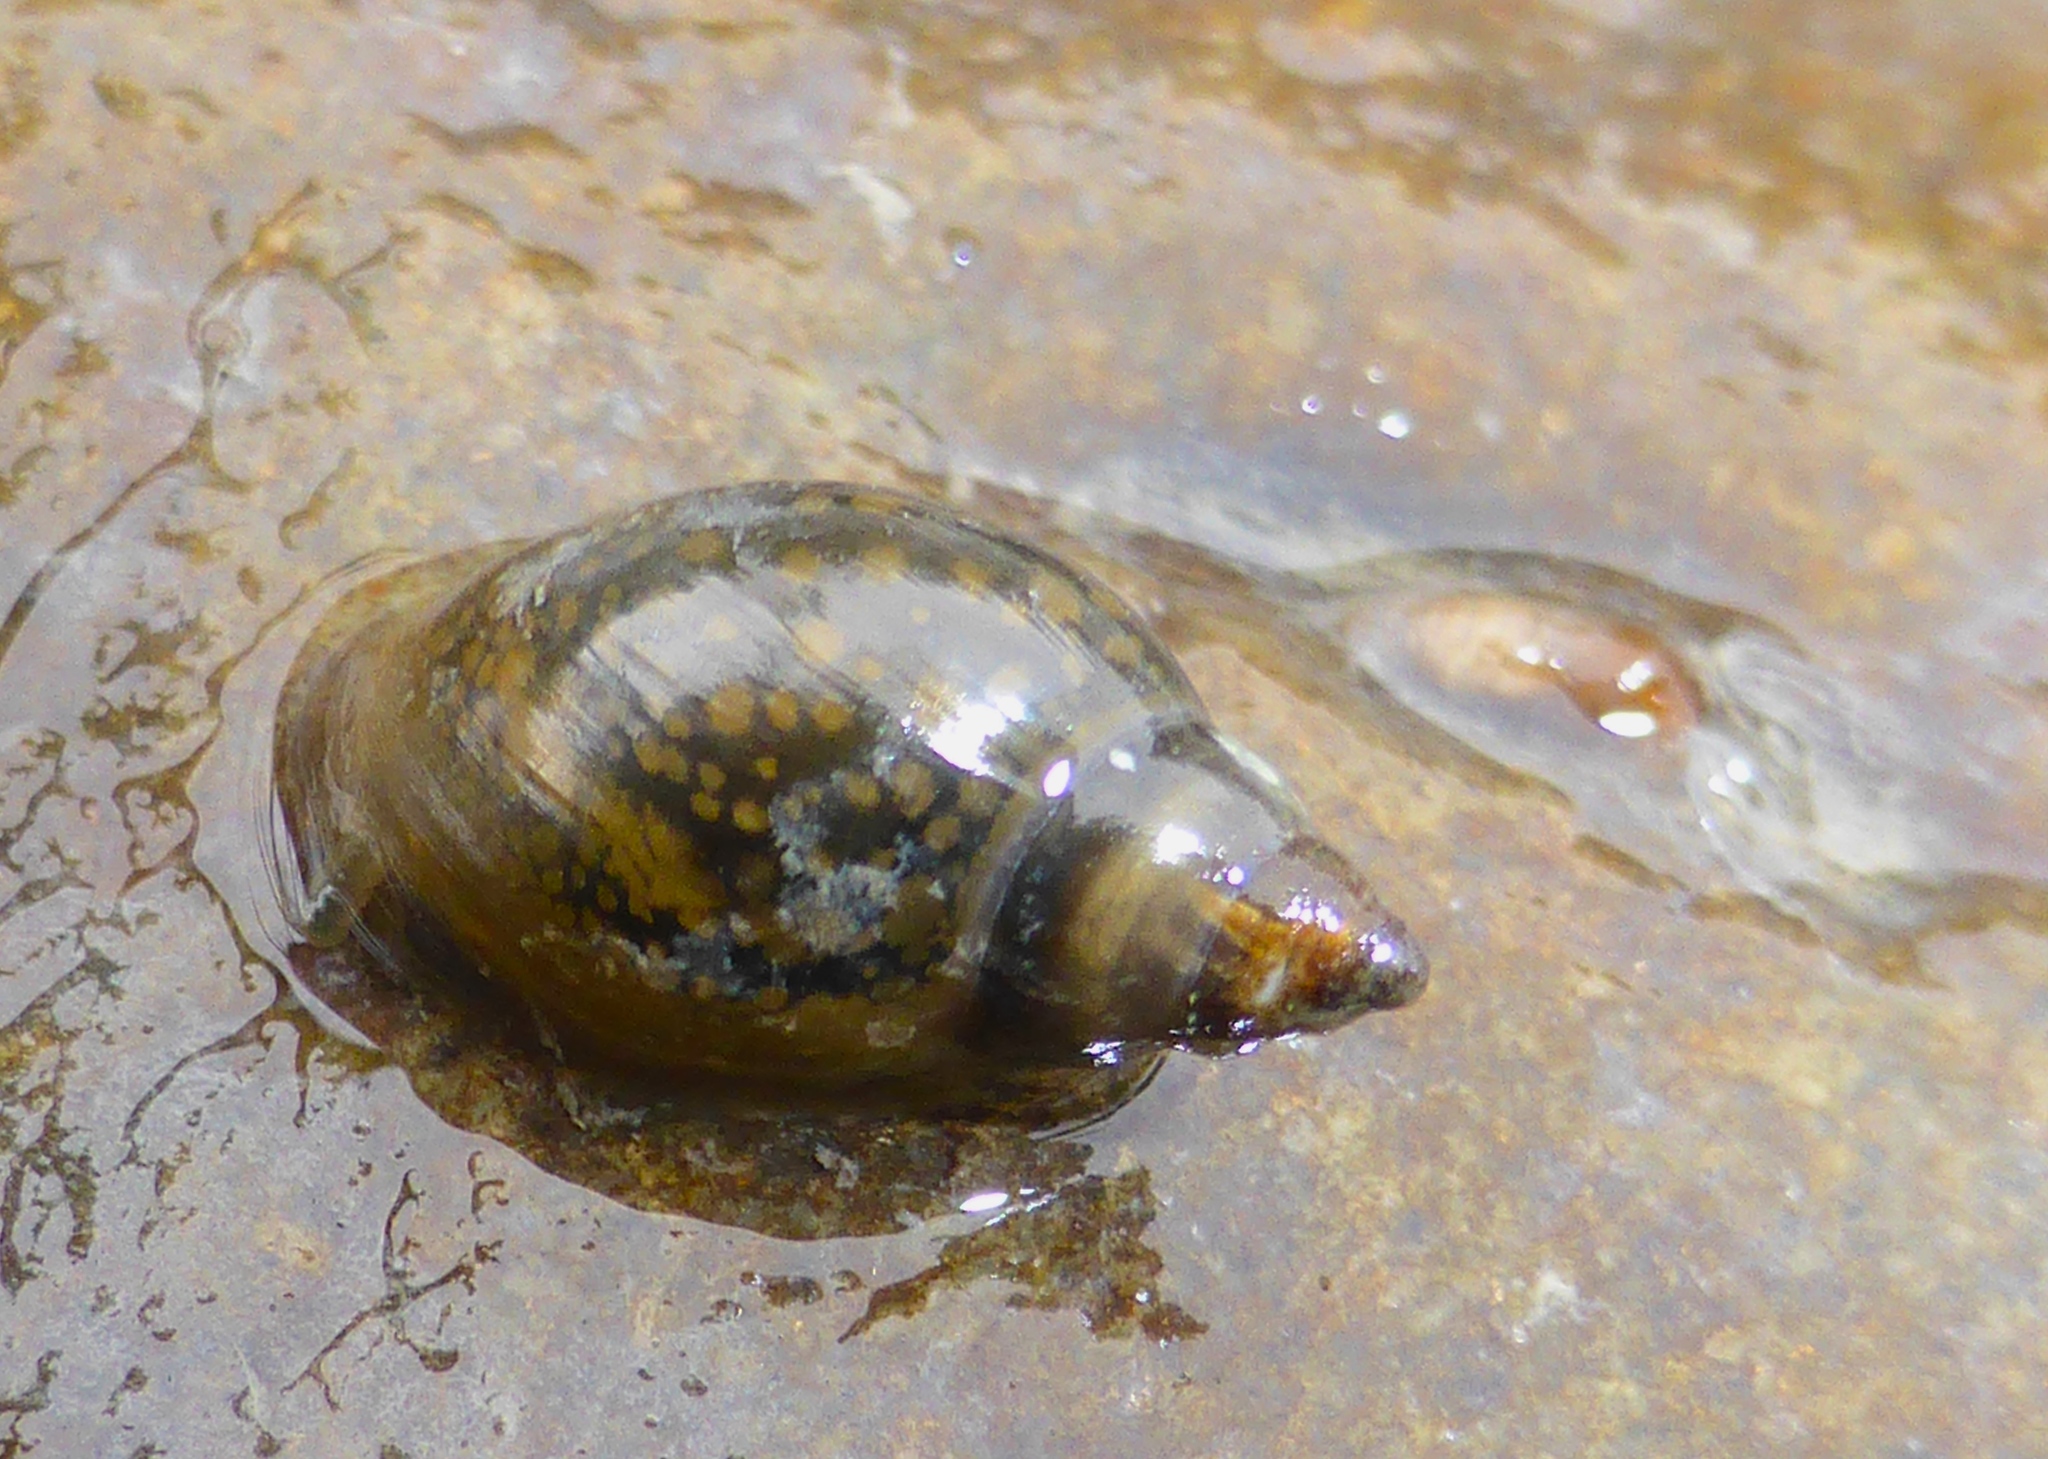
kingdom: Animalia
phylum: Mollusca
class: Gastropoda
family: Physidae
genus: Physella
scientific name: Physella acuta
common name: European physa
